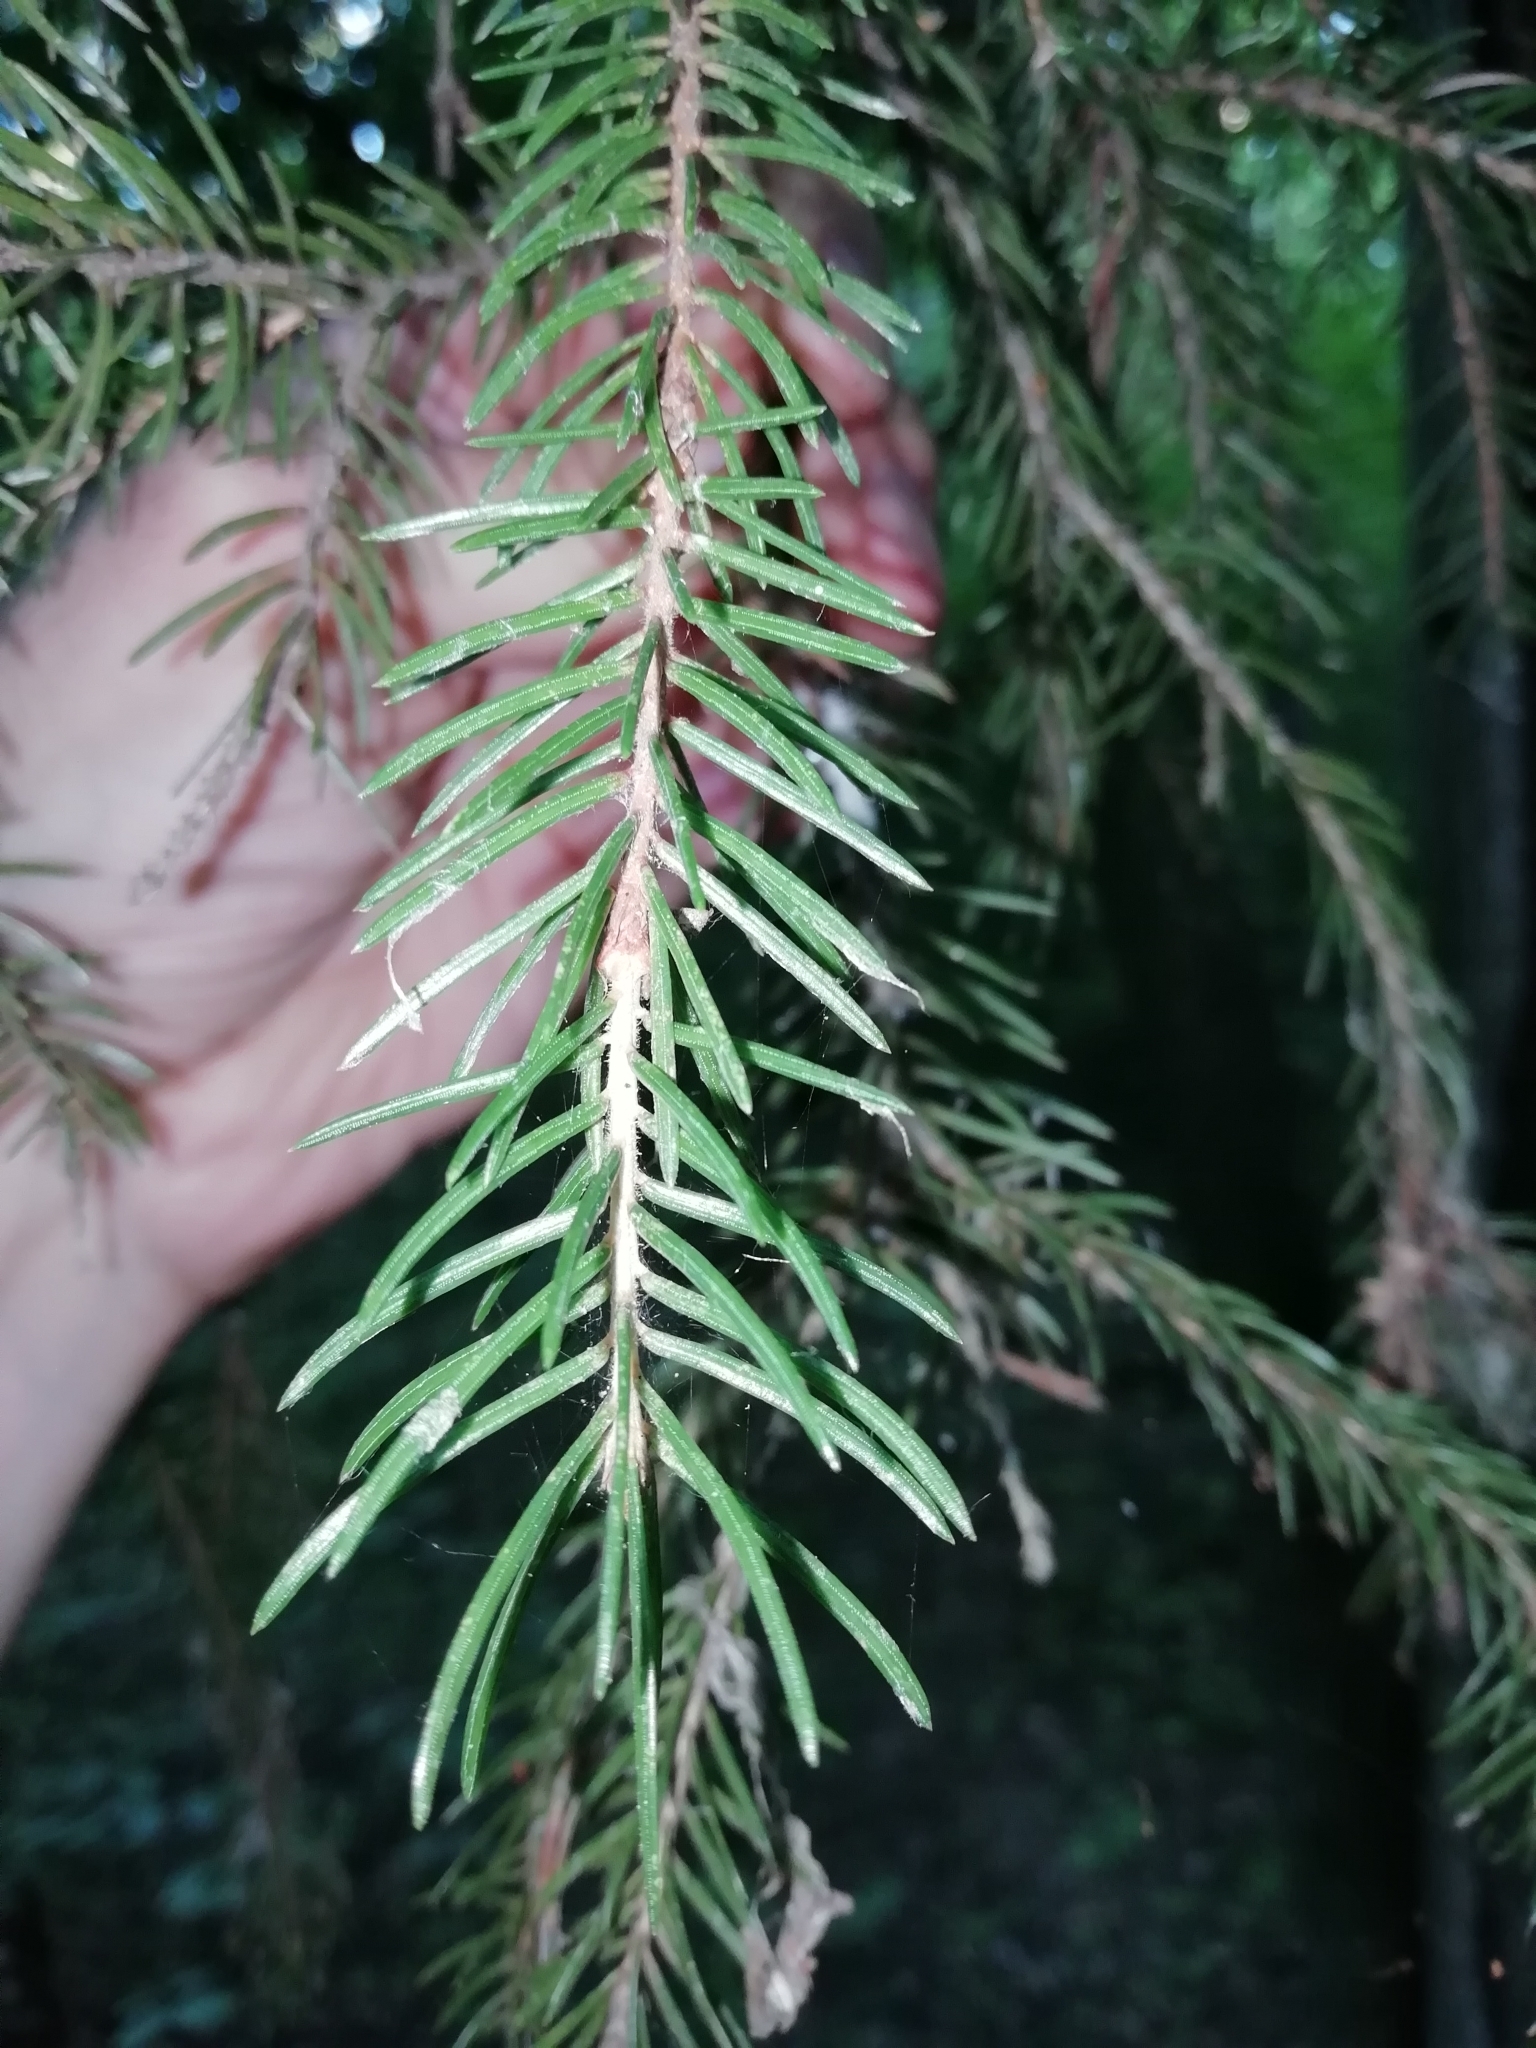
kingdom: Plantae
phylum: Tracheophyta
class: Pinopsida
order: Pinales
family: Pinaceae
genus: Picea
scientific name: Picea fennica
